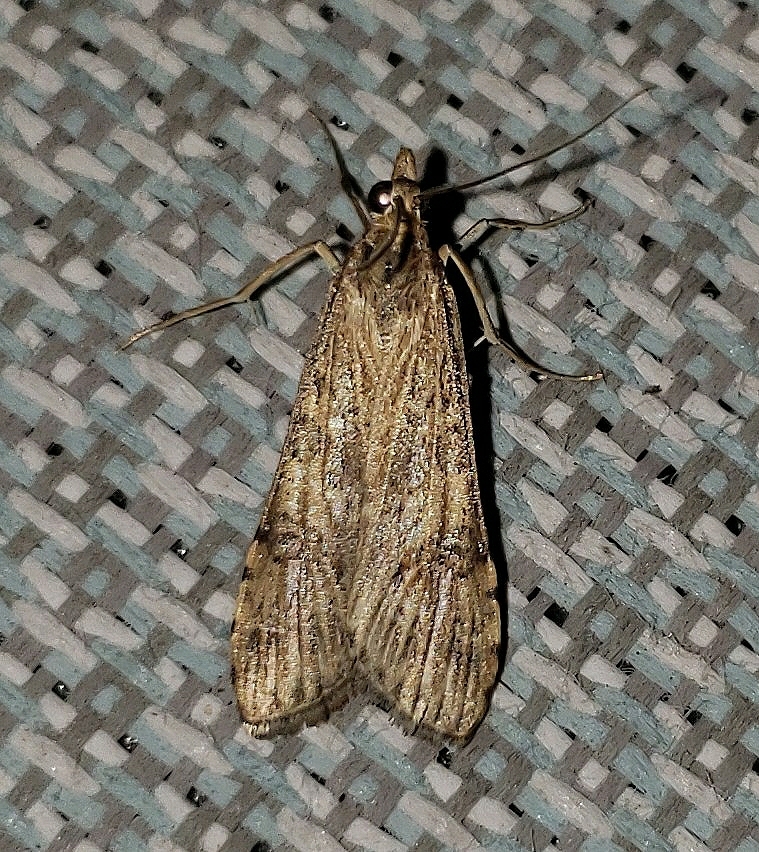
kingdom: Animalia
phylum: Arthropoda
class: Insecta
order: Lepidoptera
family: Crambidae
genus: Nomophila
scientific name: Nomophila nearctica
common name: American rush veneer
